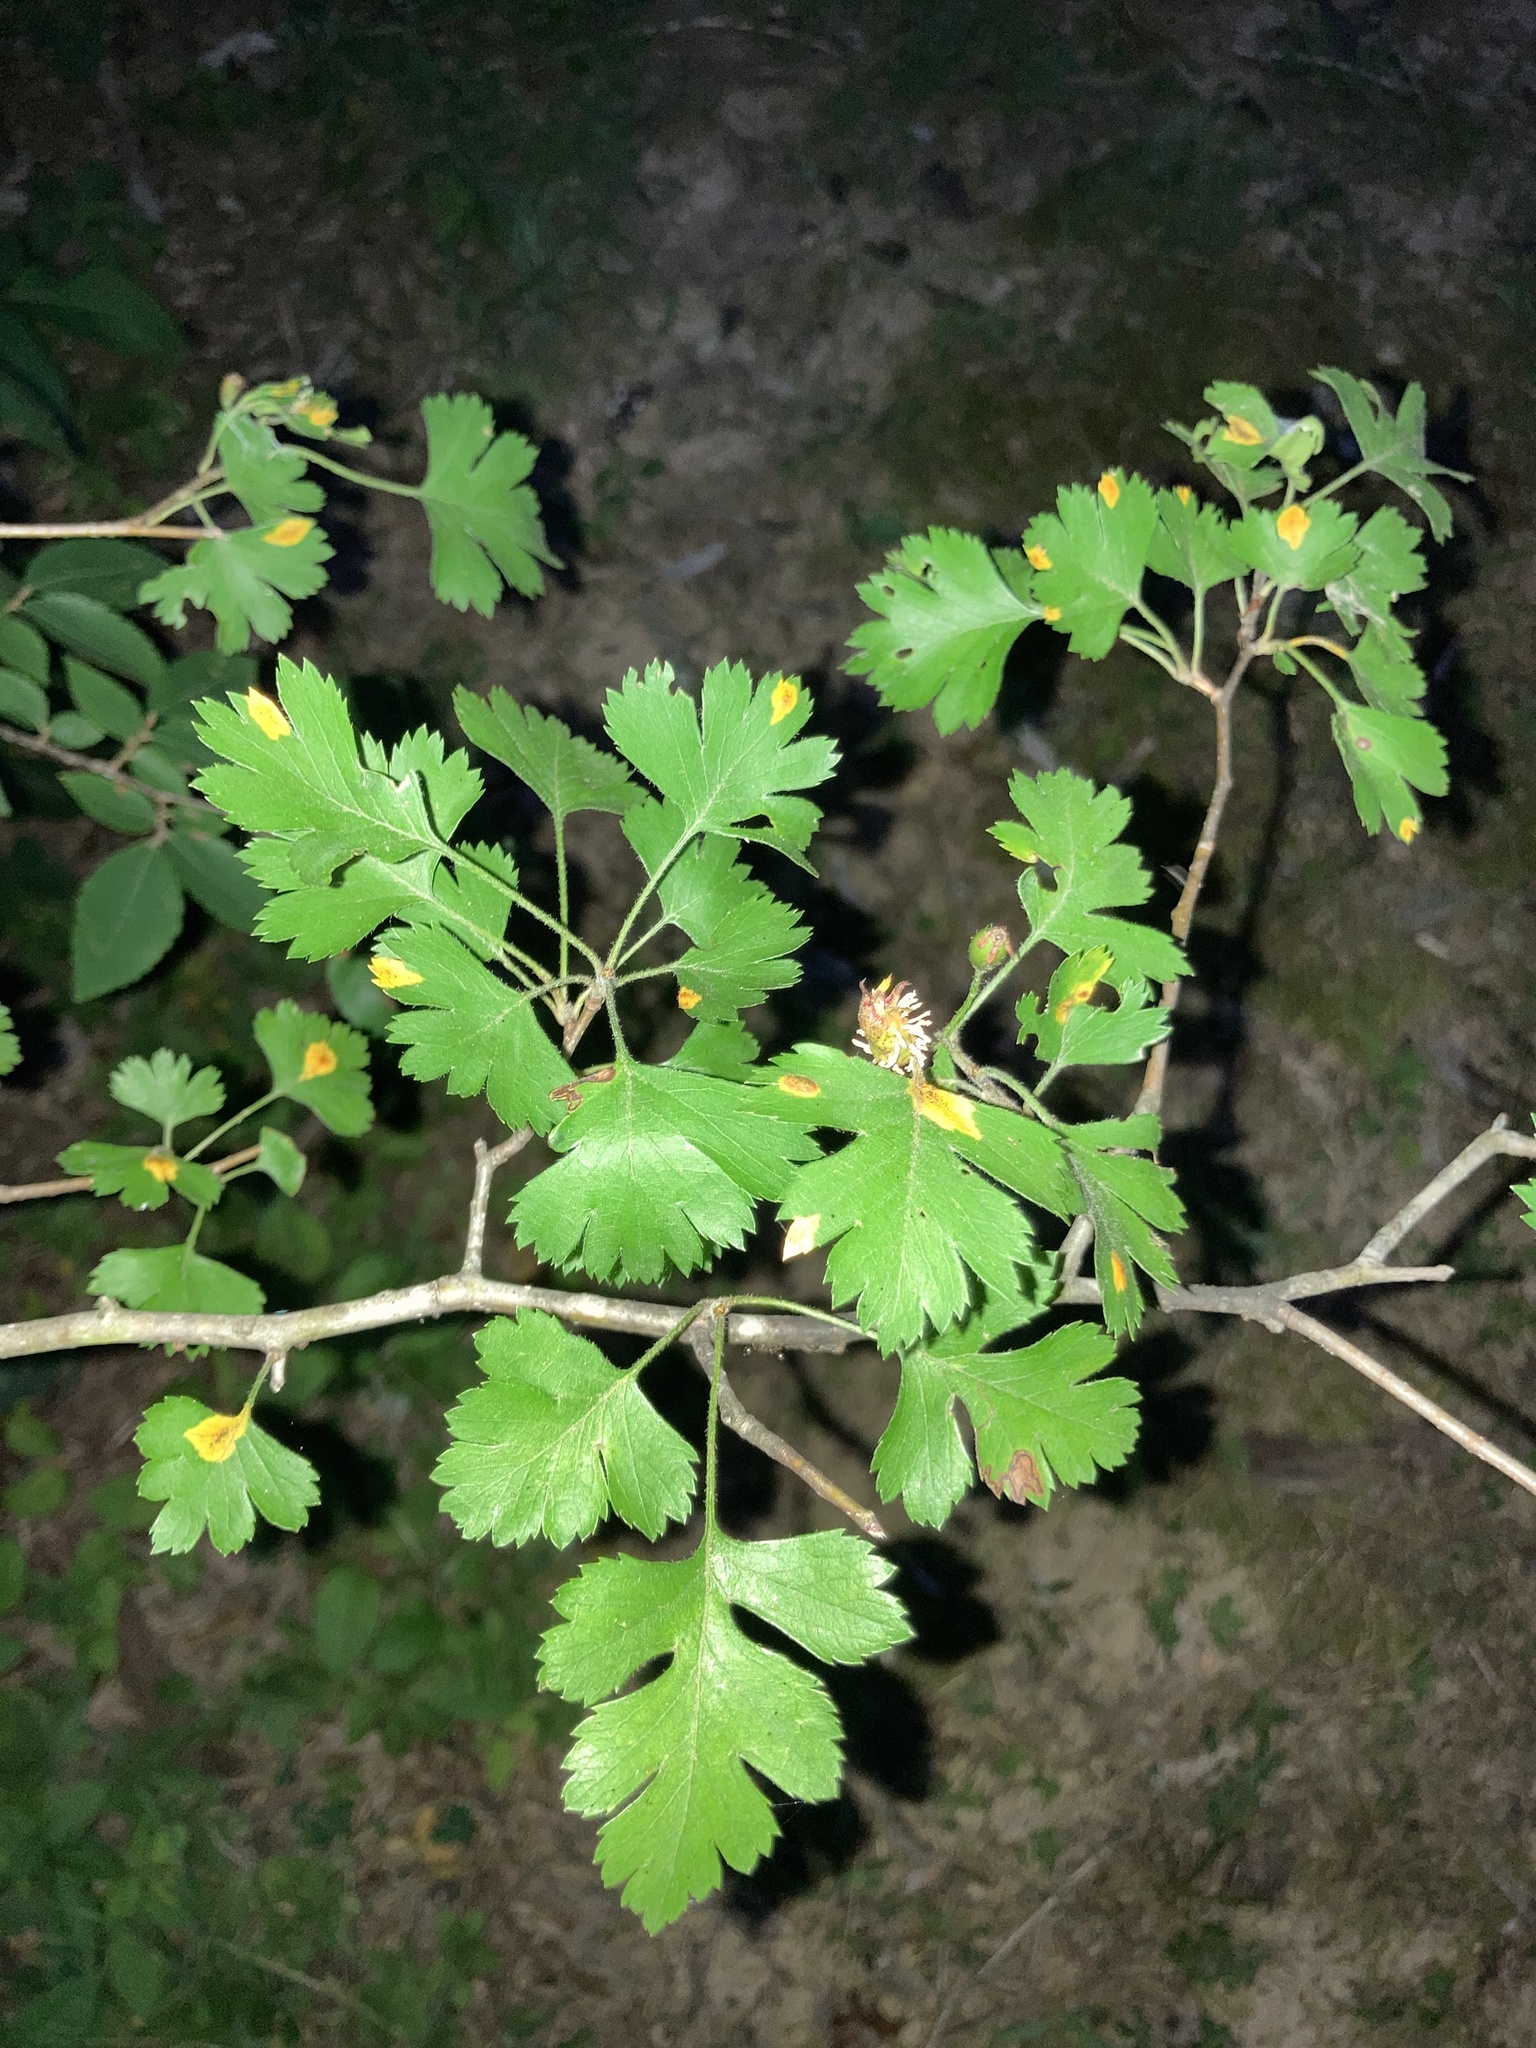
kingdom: Plantae
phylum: Tracheophyta
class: Magnoliopsida
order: Rosales
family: Rosaceae
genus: Crataegus
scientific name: Crataegus marshallii
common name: Parsley-hawthorn
